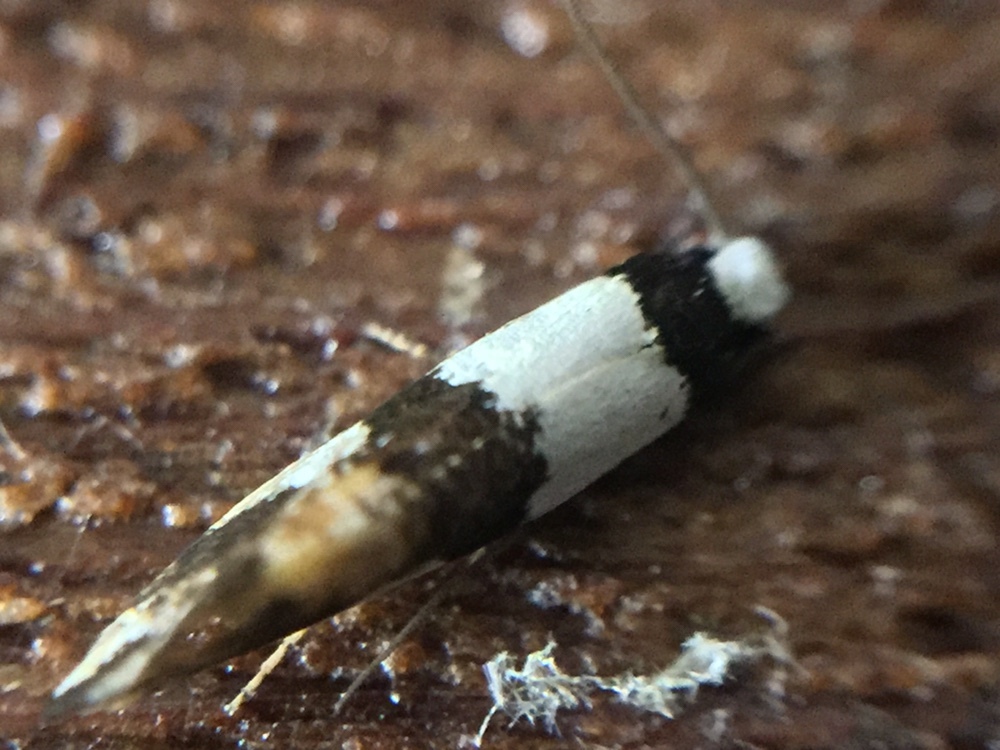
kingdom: Animalia
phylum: Arthropoda
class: Insecta
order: Lepidoptera
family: Tineidae
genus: Monopis
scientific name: Monopis icterogastra
